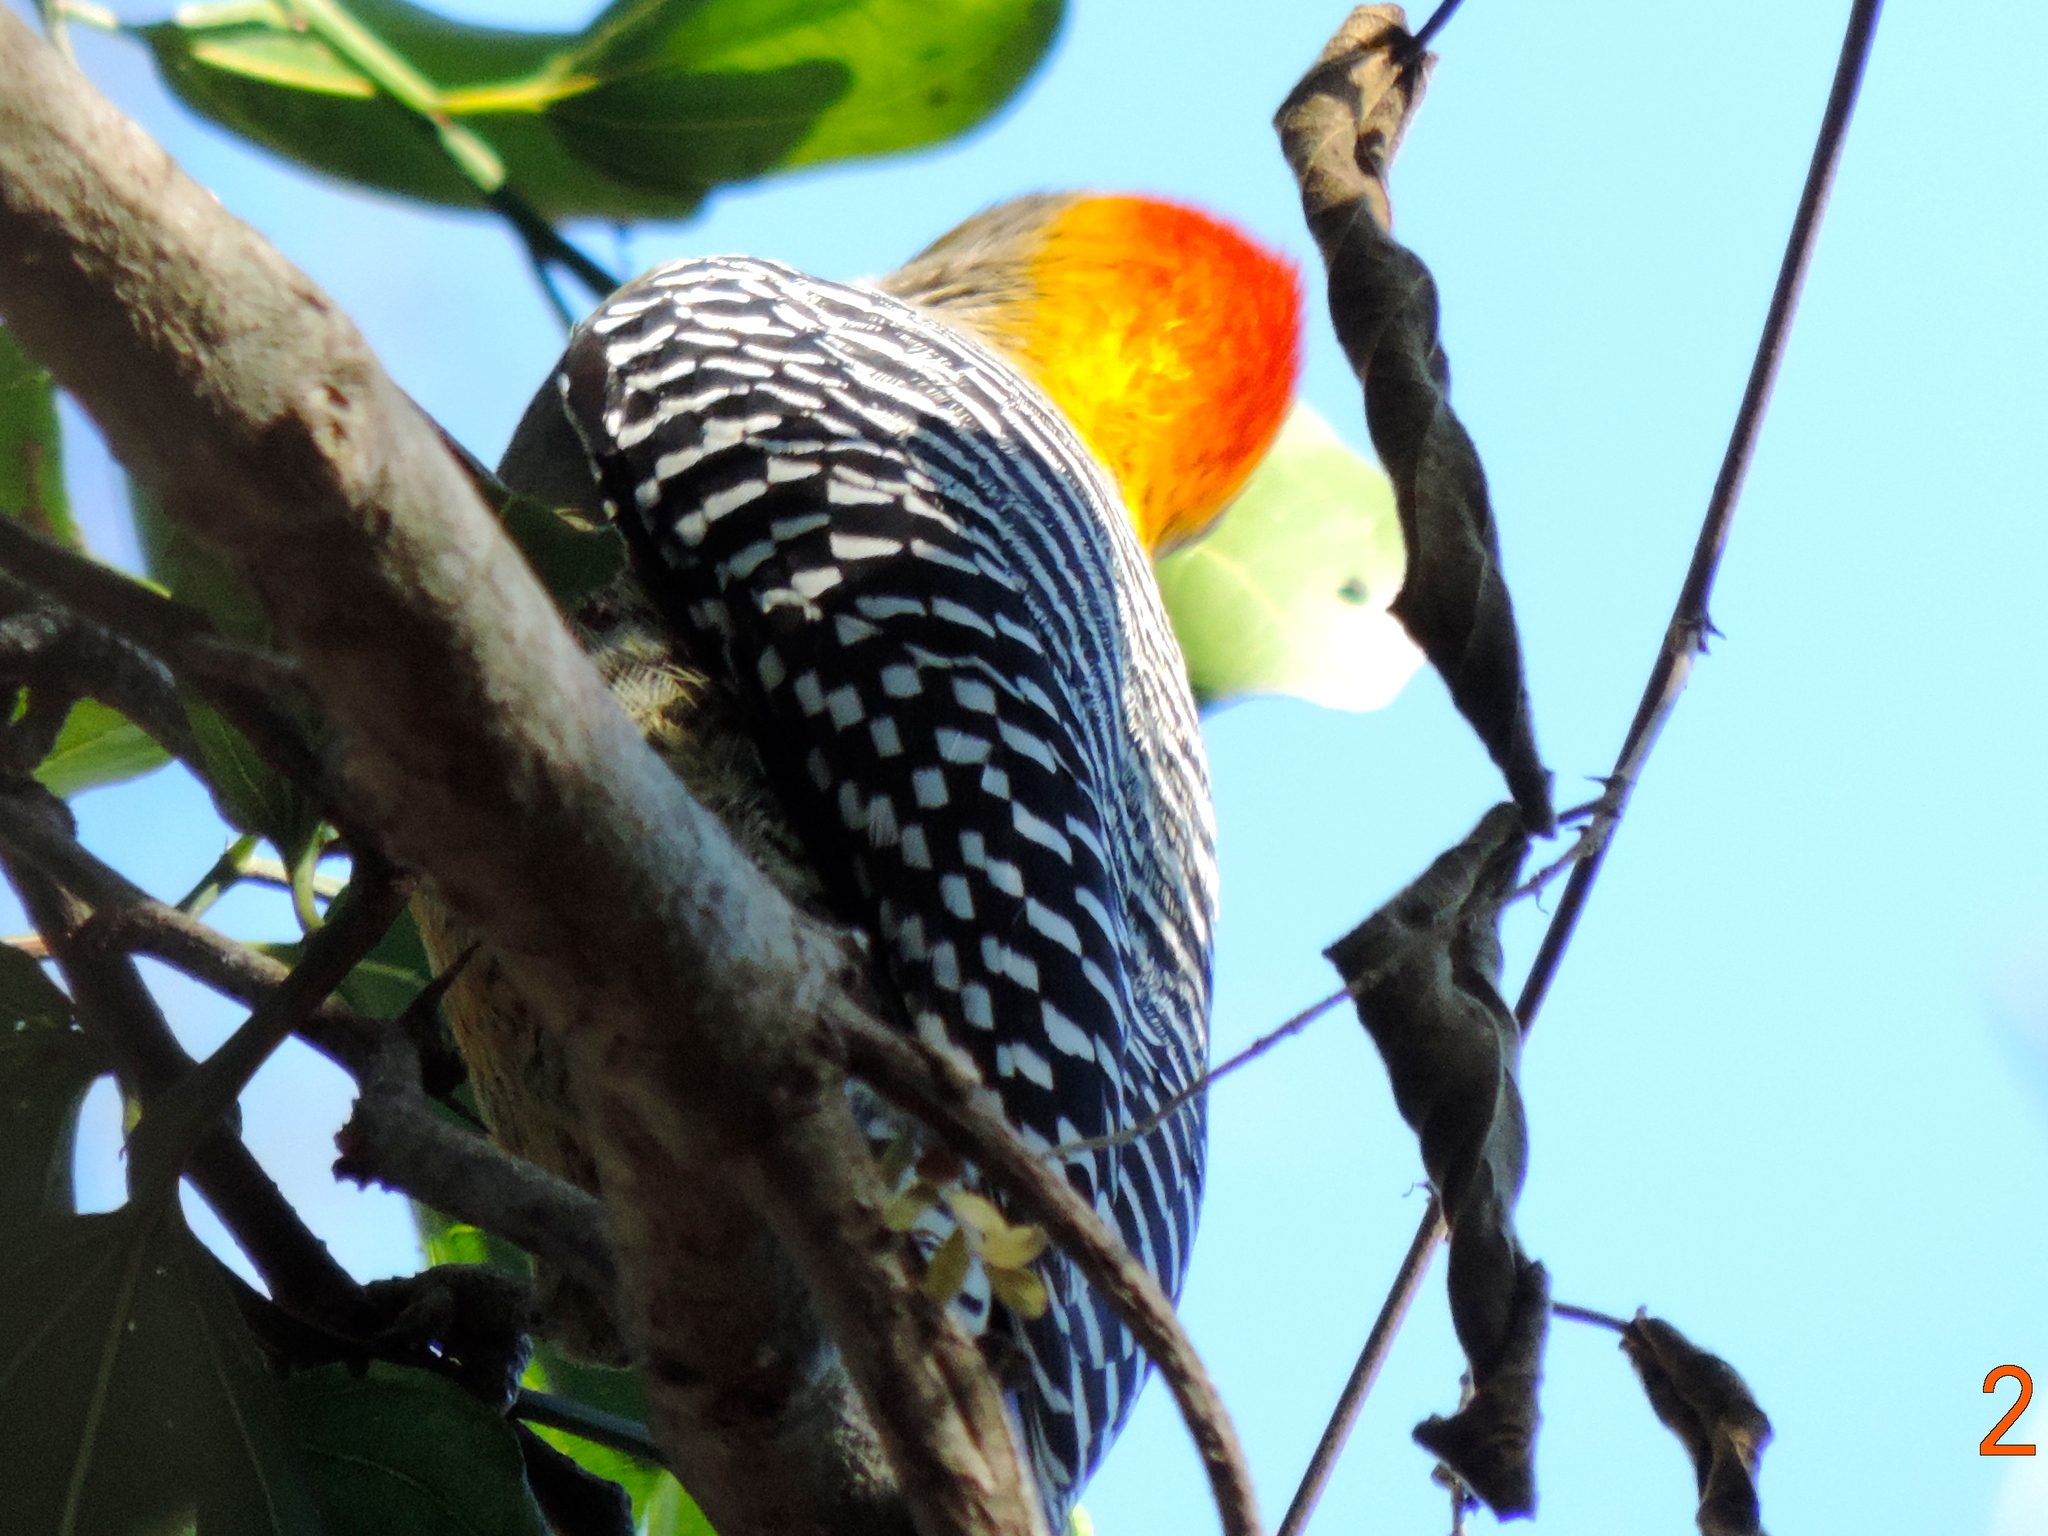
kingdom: Animalia
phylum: Chordata
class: Aves
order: Piciformes
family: Picidae
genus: Melanerpes
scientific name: Melanerpes chrysogenys
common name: Golden-cheeked woodpecker
